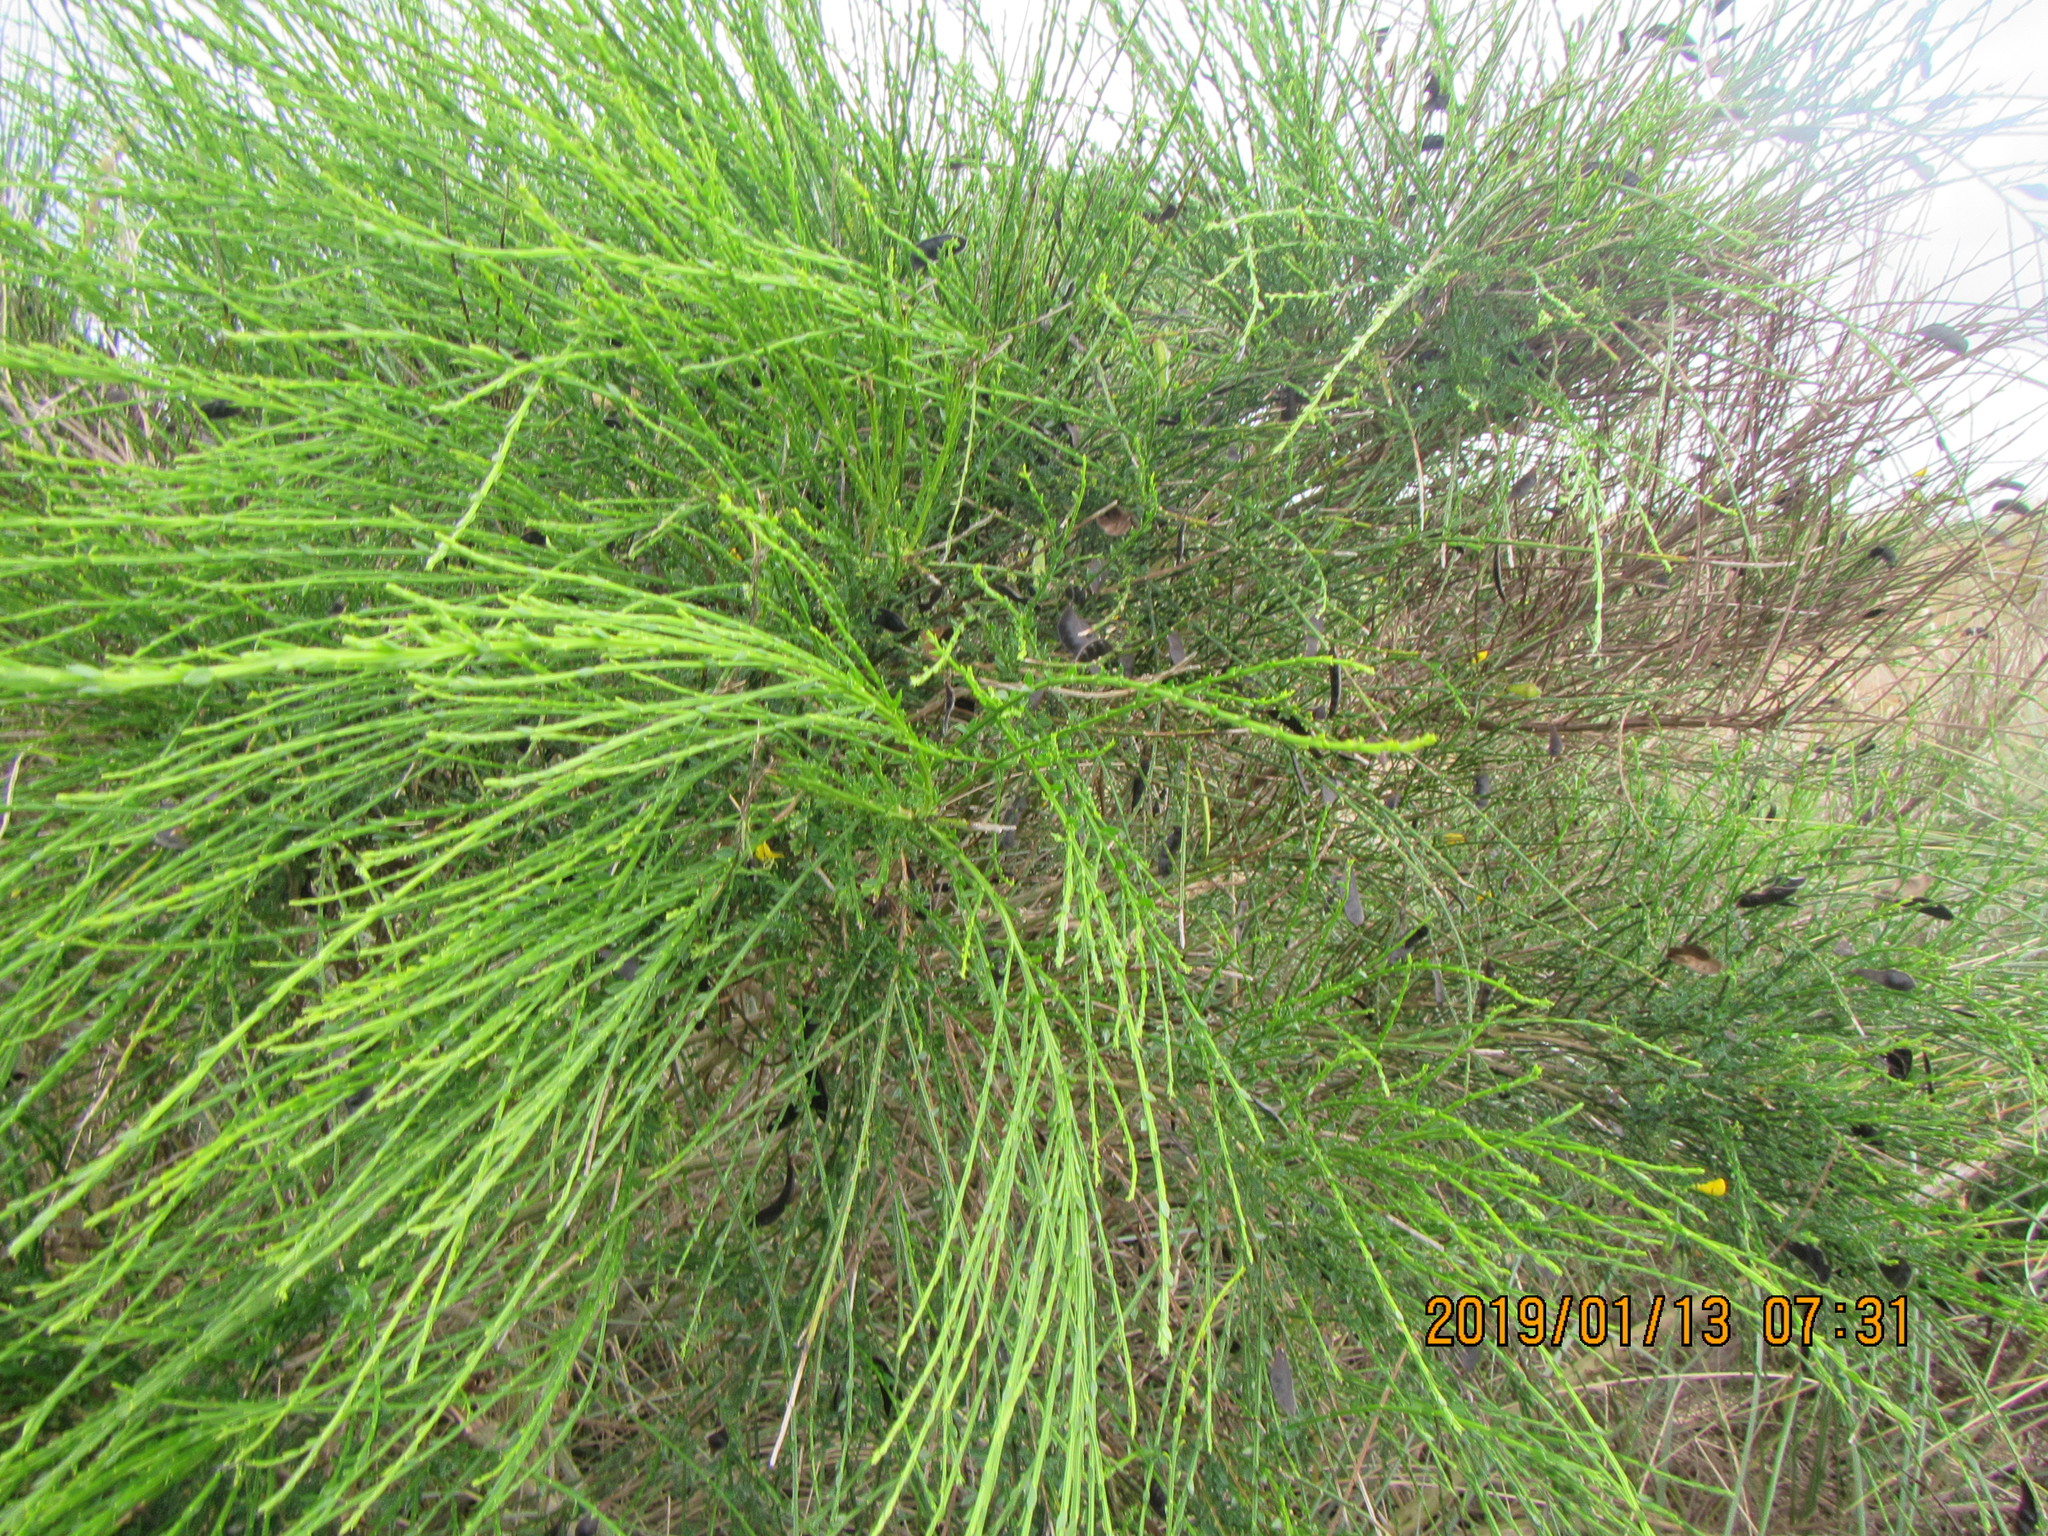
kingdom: Plantae
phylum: Tracheophyta
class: Magnoliopsida
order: Fabales
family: Fabaceae
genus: Cytisus
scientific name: Cytisus scoparius
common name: Scotch broom
